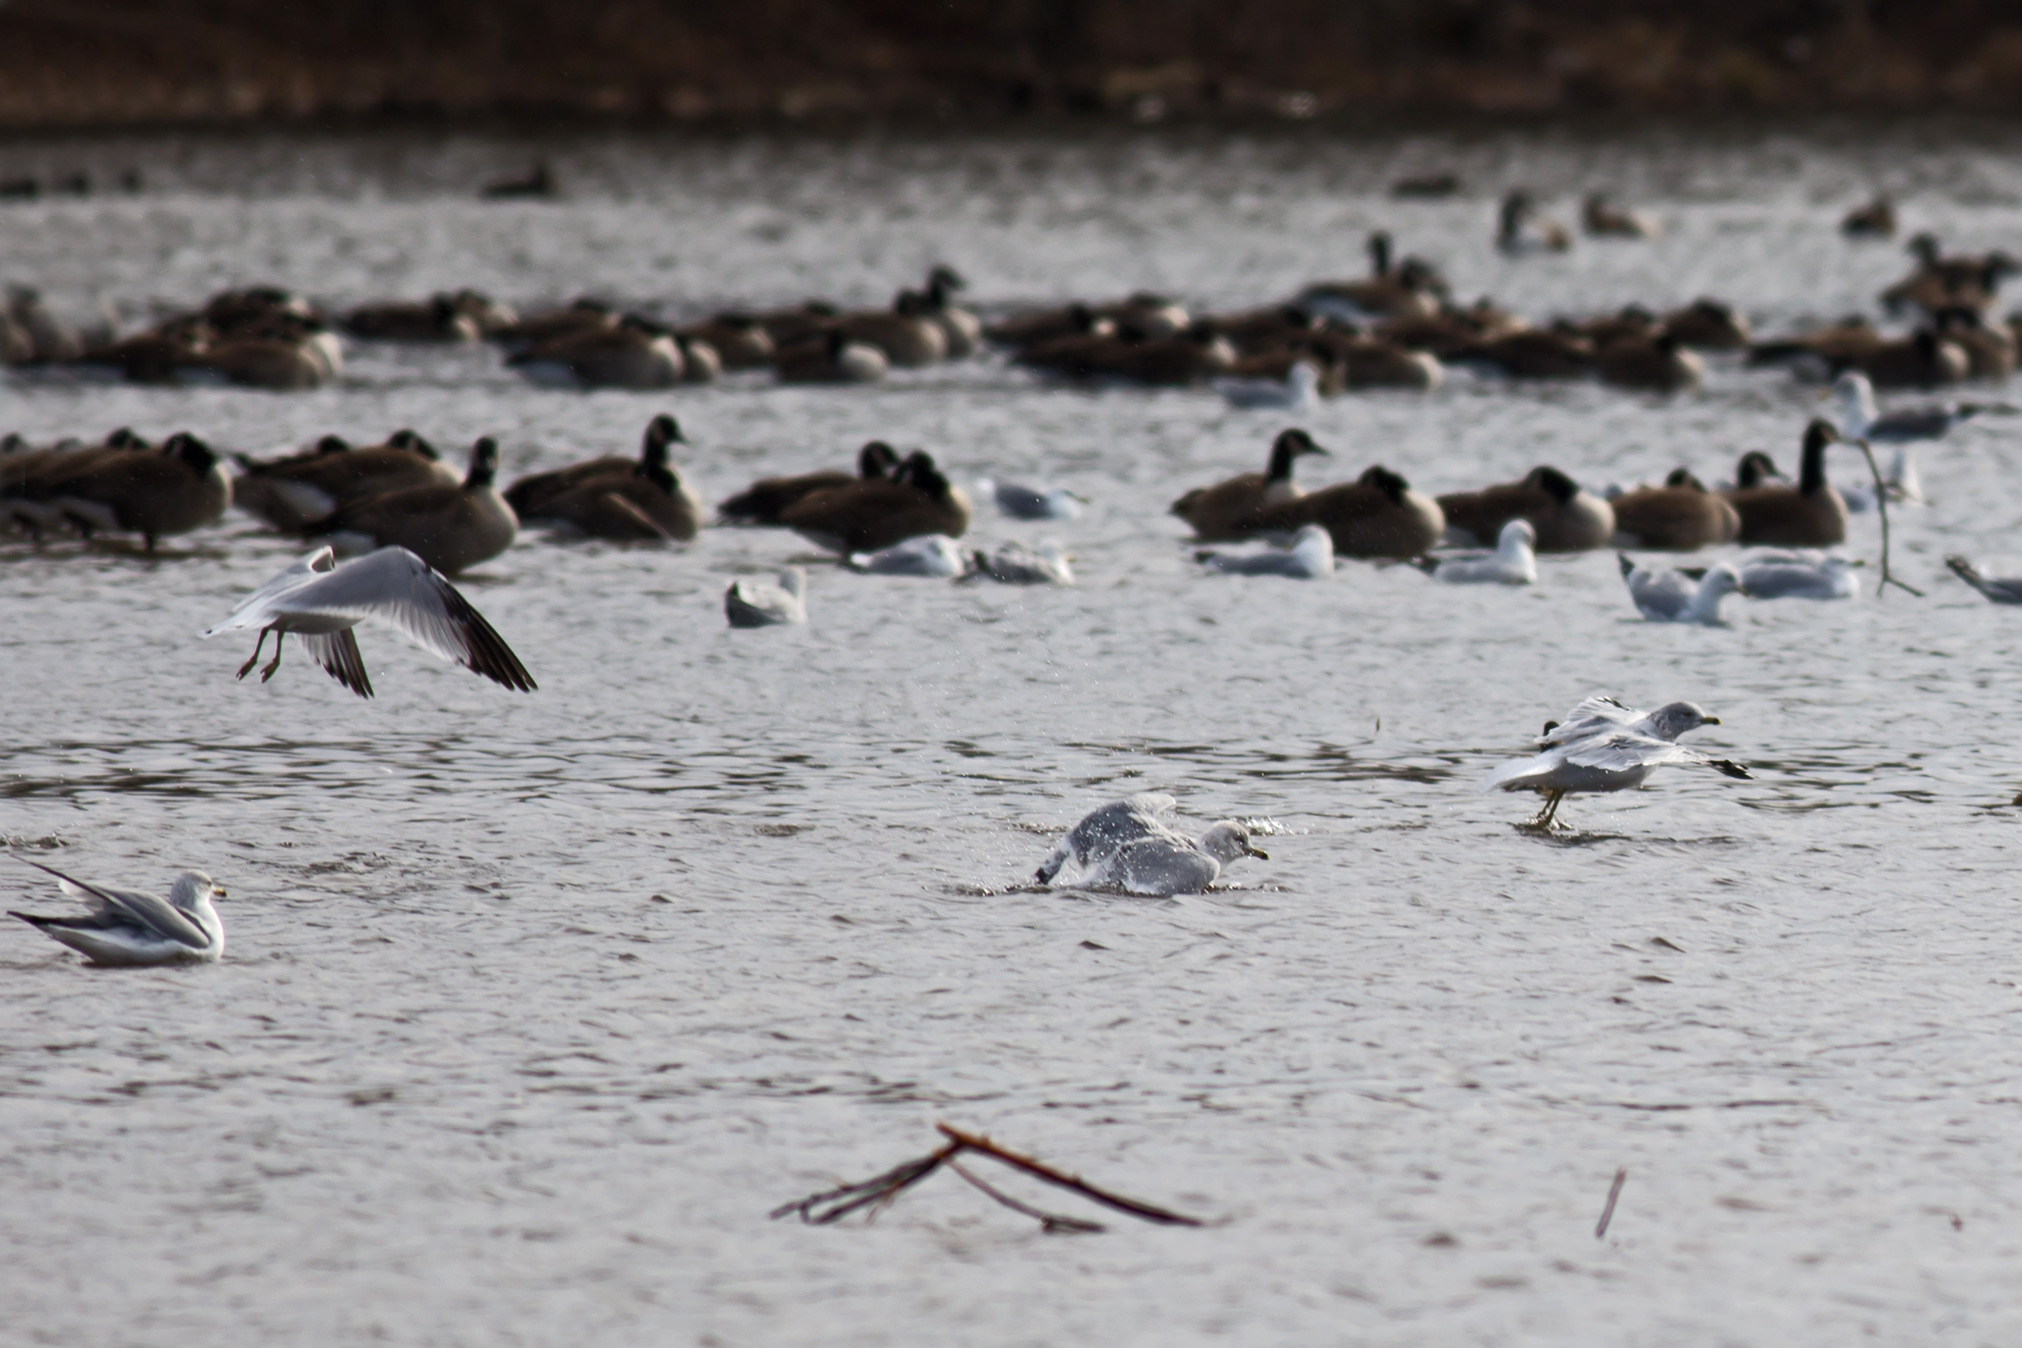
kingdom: Animalia
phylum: Chordata
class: Aves
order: Charadriiformes
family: Laridae
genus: Larus
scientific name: Larus delawarensis
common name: Ring-billed gull
